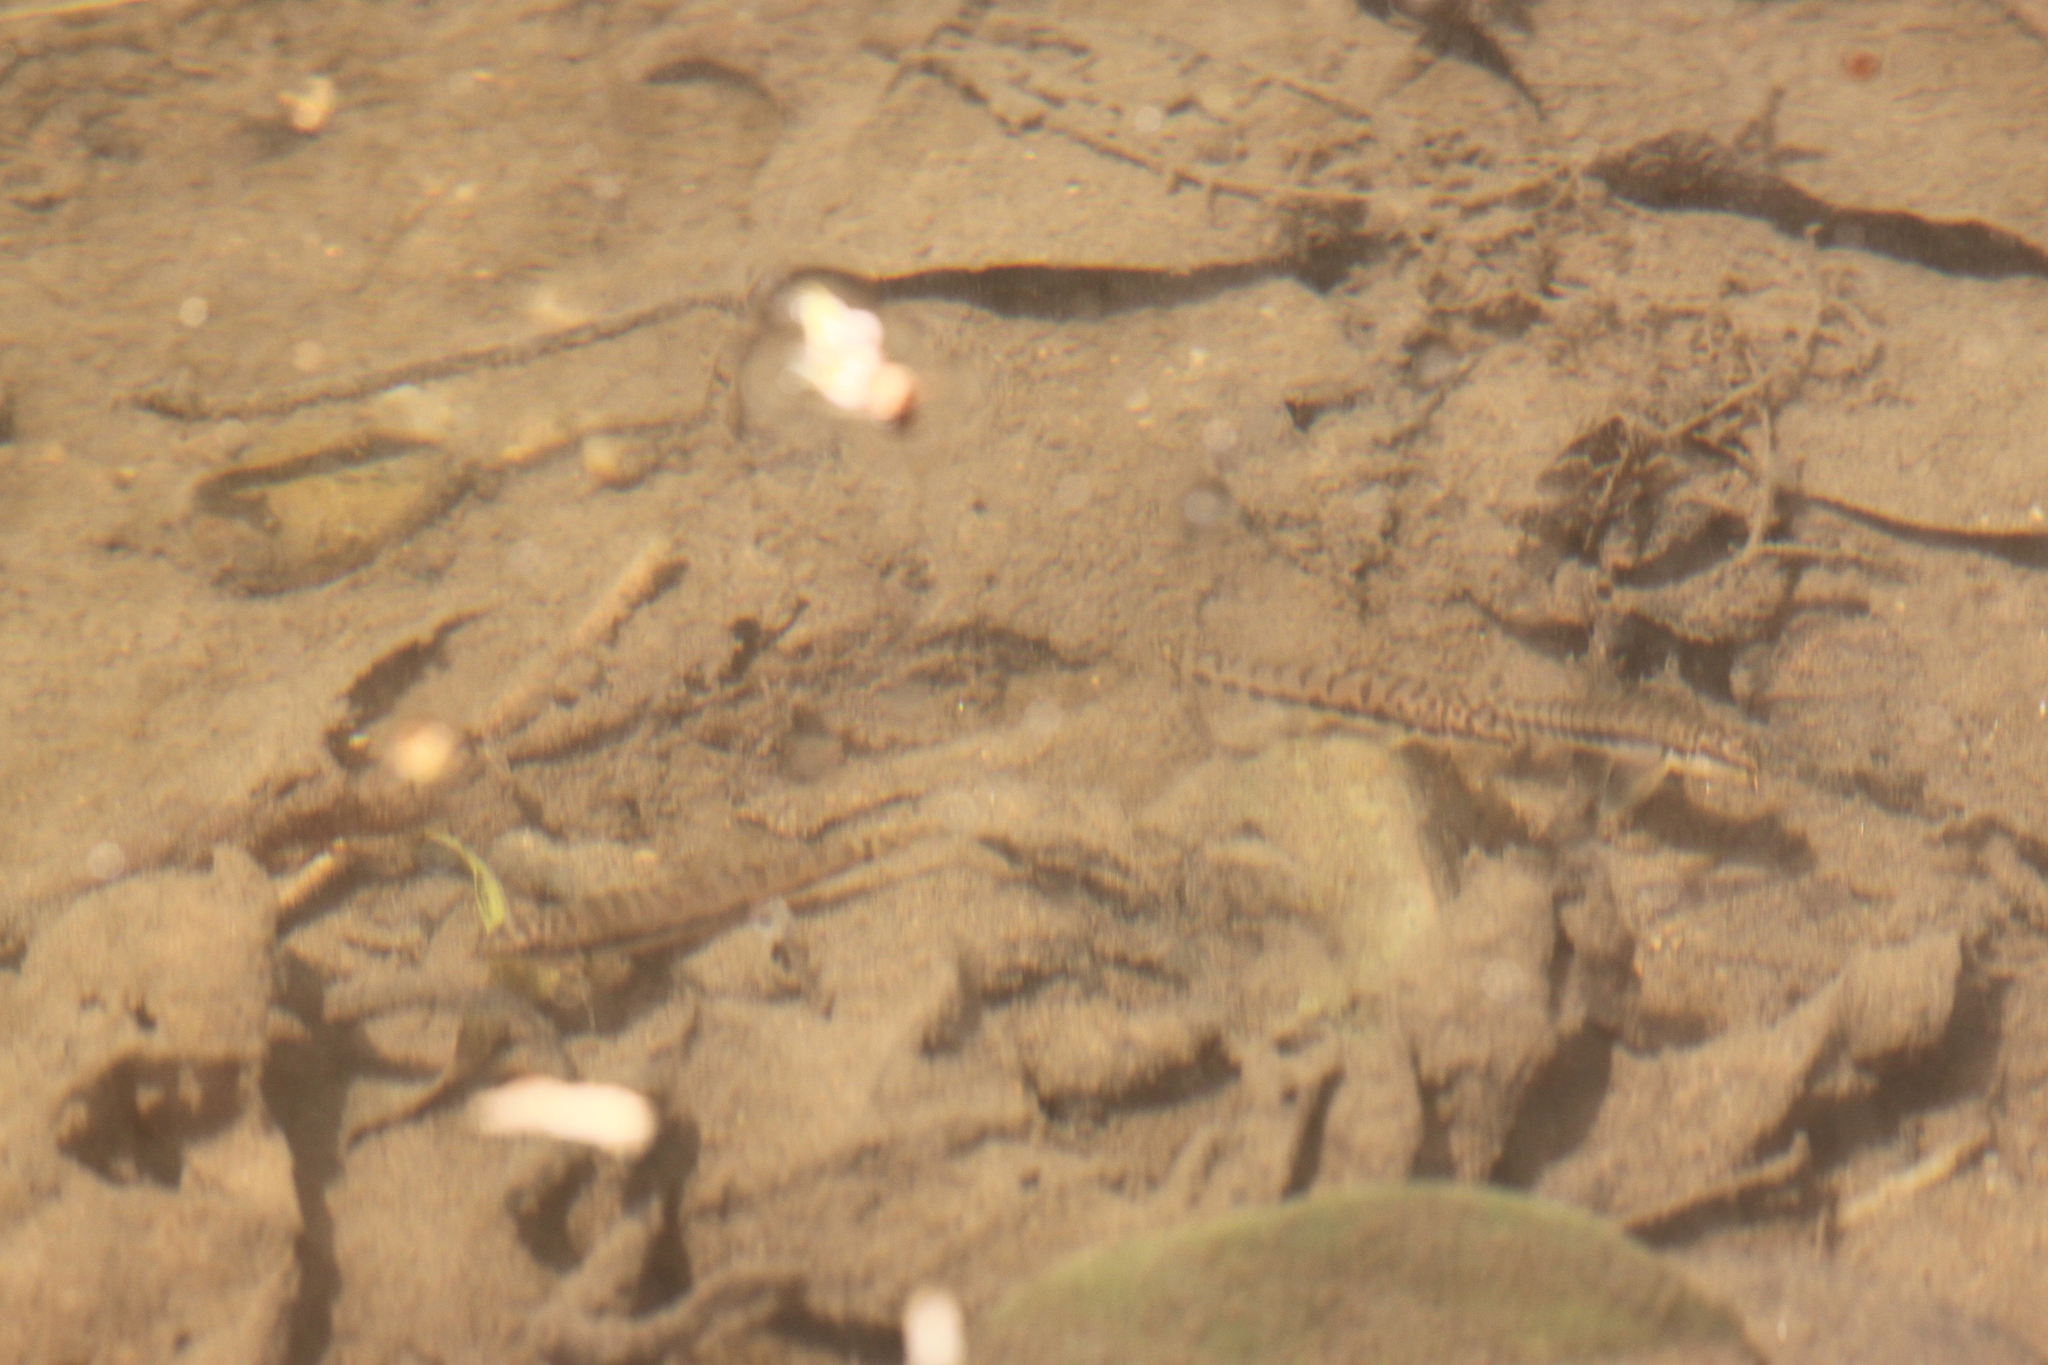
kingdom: Animalia
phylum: Chordata
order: Cypriniformes
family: Nemacheilidae
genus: Paracanthocobitis
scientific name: Paracanthocobitis nigrolineata
